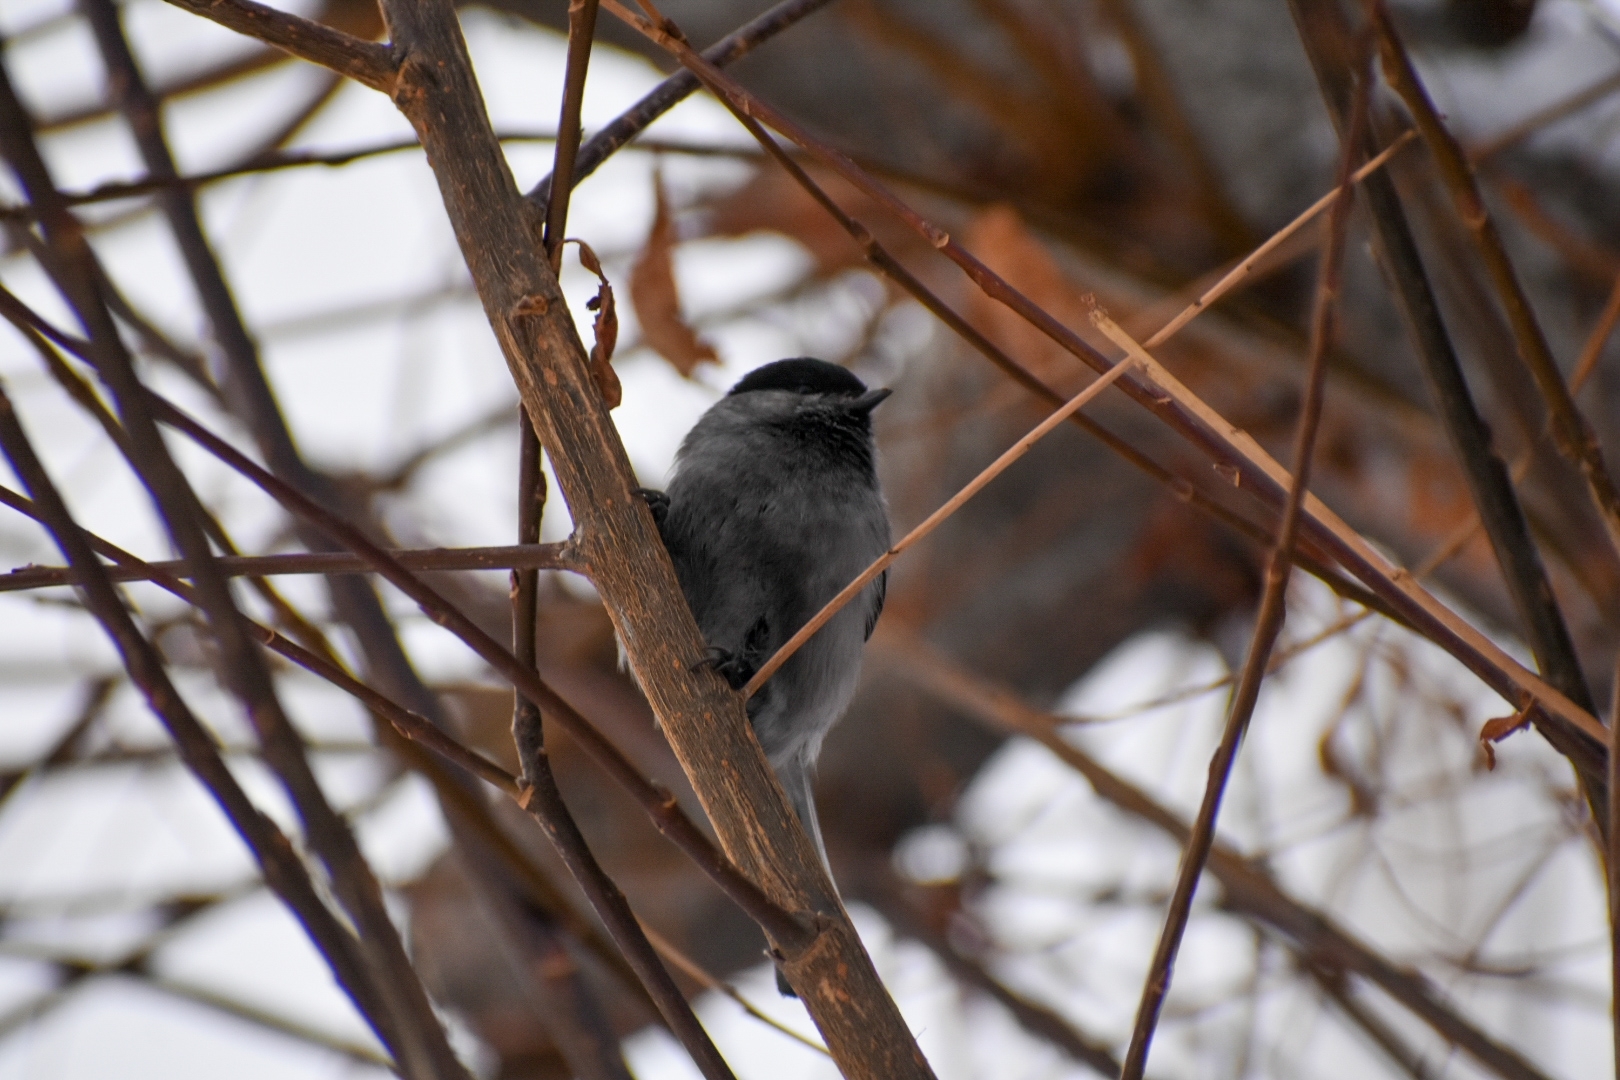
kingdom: Animalia
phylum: Chordata
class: Aves
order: Passeriformes
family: Paridae
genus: Poecile
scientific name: Poecile montanus
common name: Willow tit
